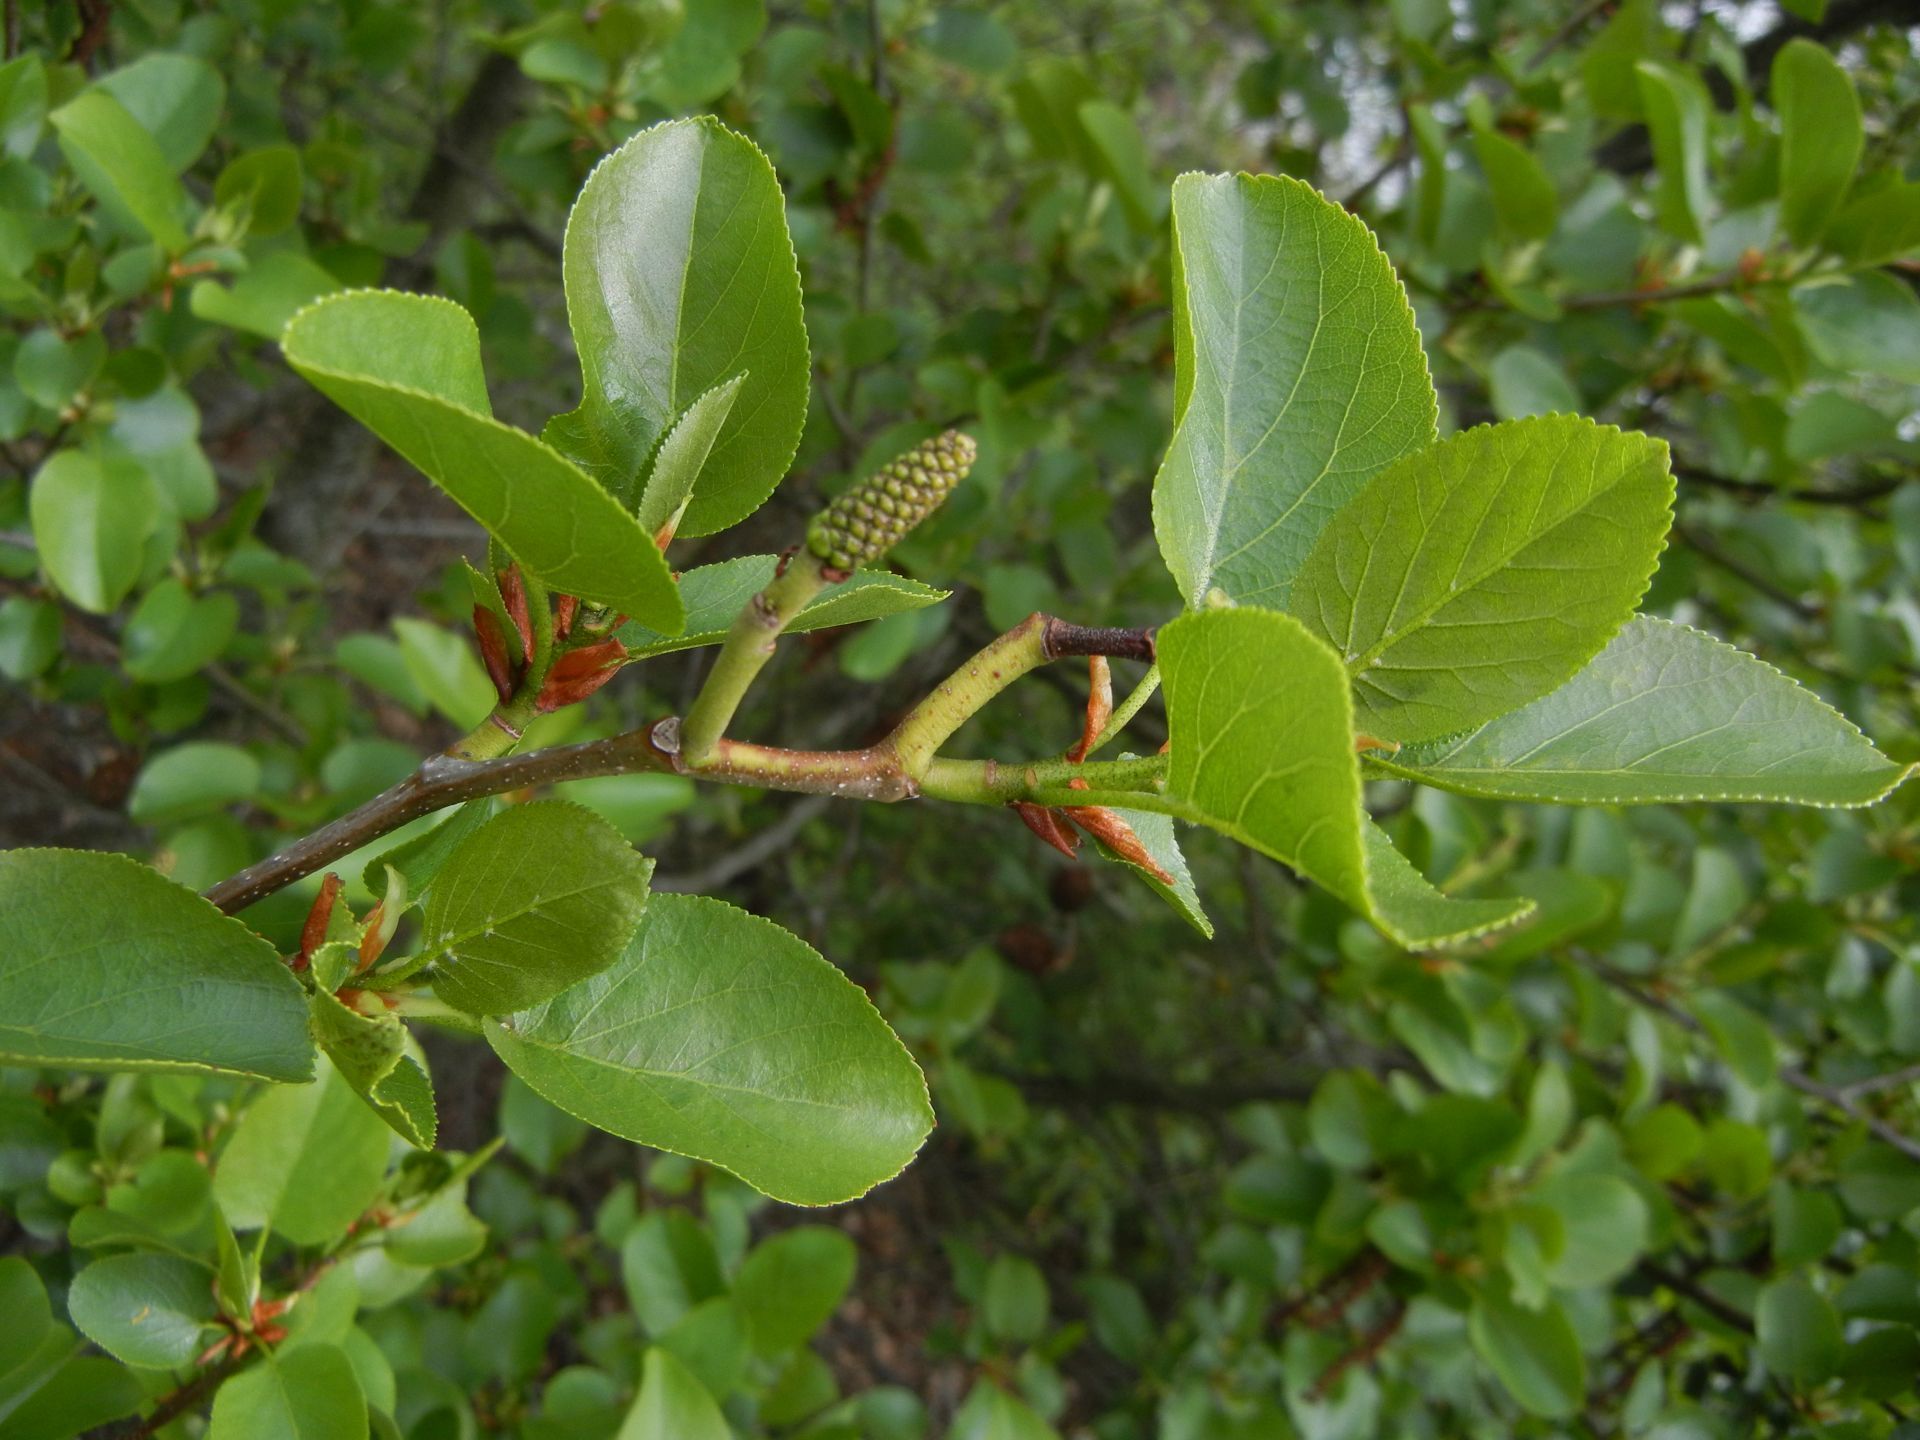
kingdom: Plantae
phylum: Tracheophyta
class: Magnoliopsida
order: Fagales
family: Betulaceae
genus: Alnus
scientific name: Alnus cordata
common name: Italian alder
